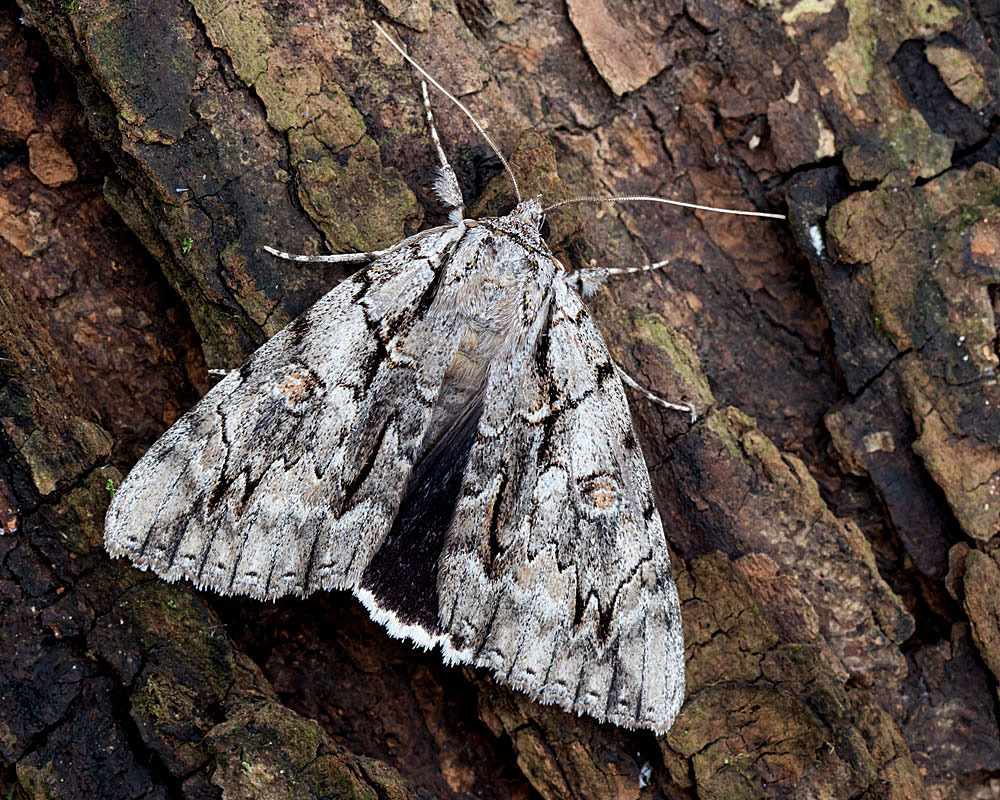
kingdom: Animalia
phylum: Arthropoda
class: Insecta
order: Lepidoptera
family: Erebidae
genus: Catocala
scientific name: Catocala retecta
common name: Yellow-gray underwing
